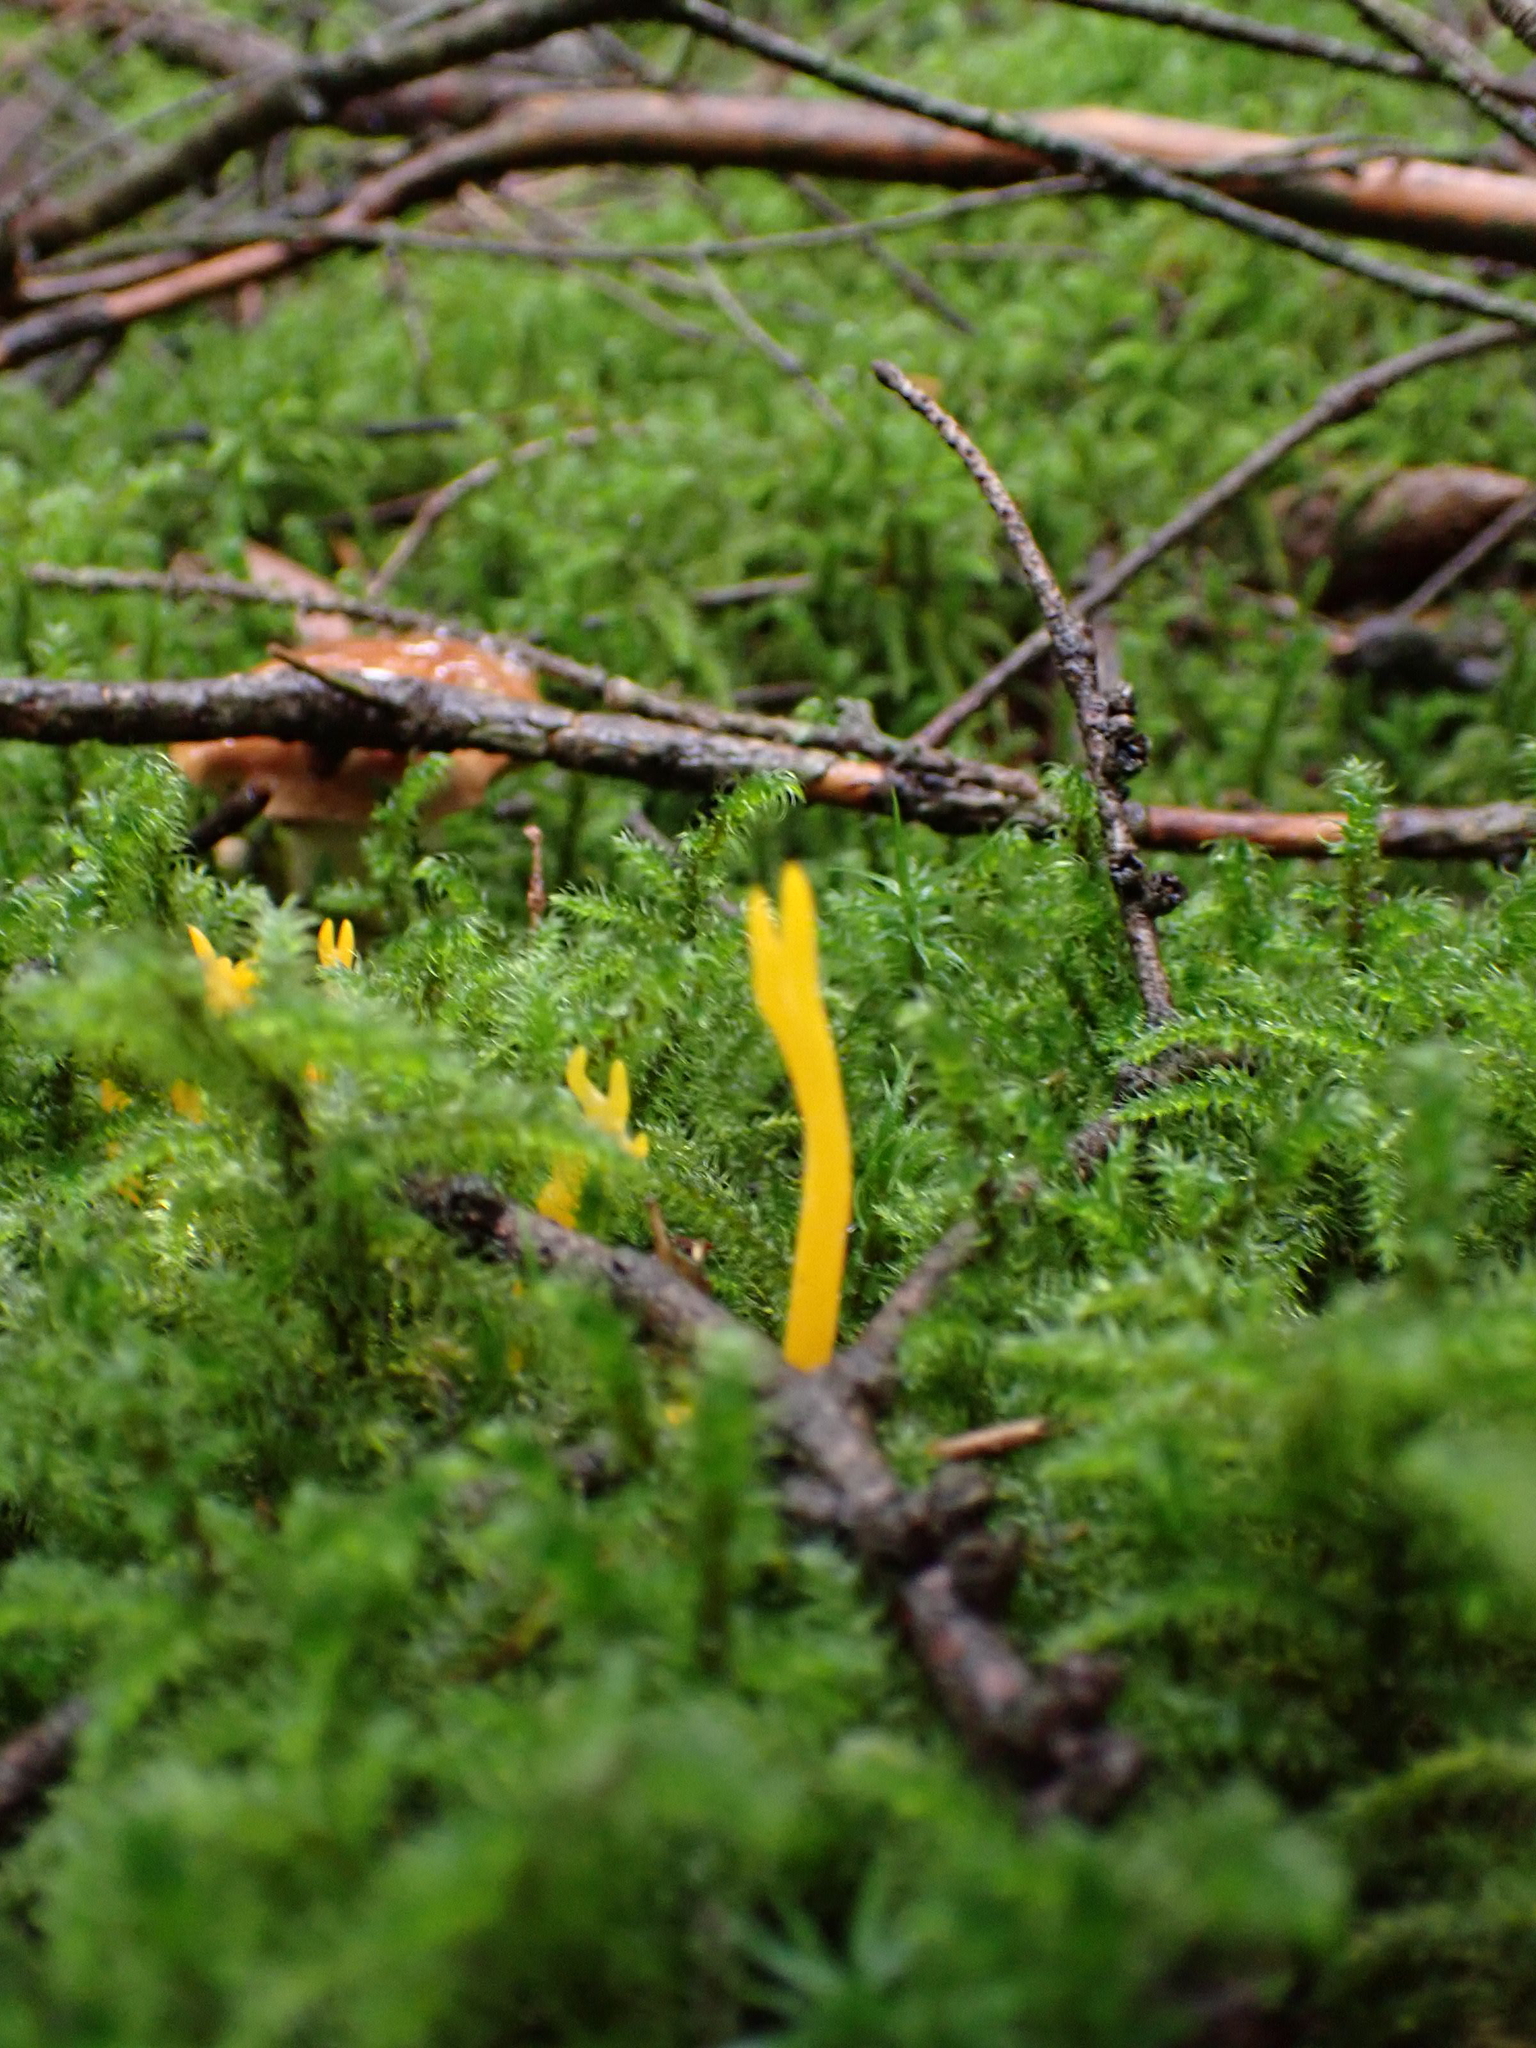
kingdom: Fungi
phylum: Basidiomycota
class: Dacrymycetes
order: Dacrymycetales
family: Dacrymycetaceae
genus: Calocera
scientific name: Calocera viscosa
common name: Yellow stagshorn
